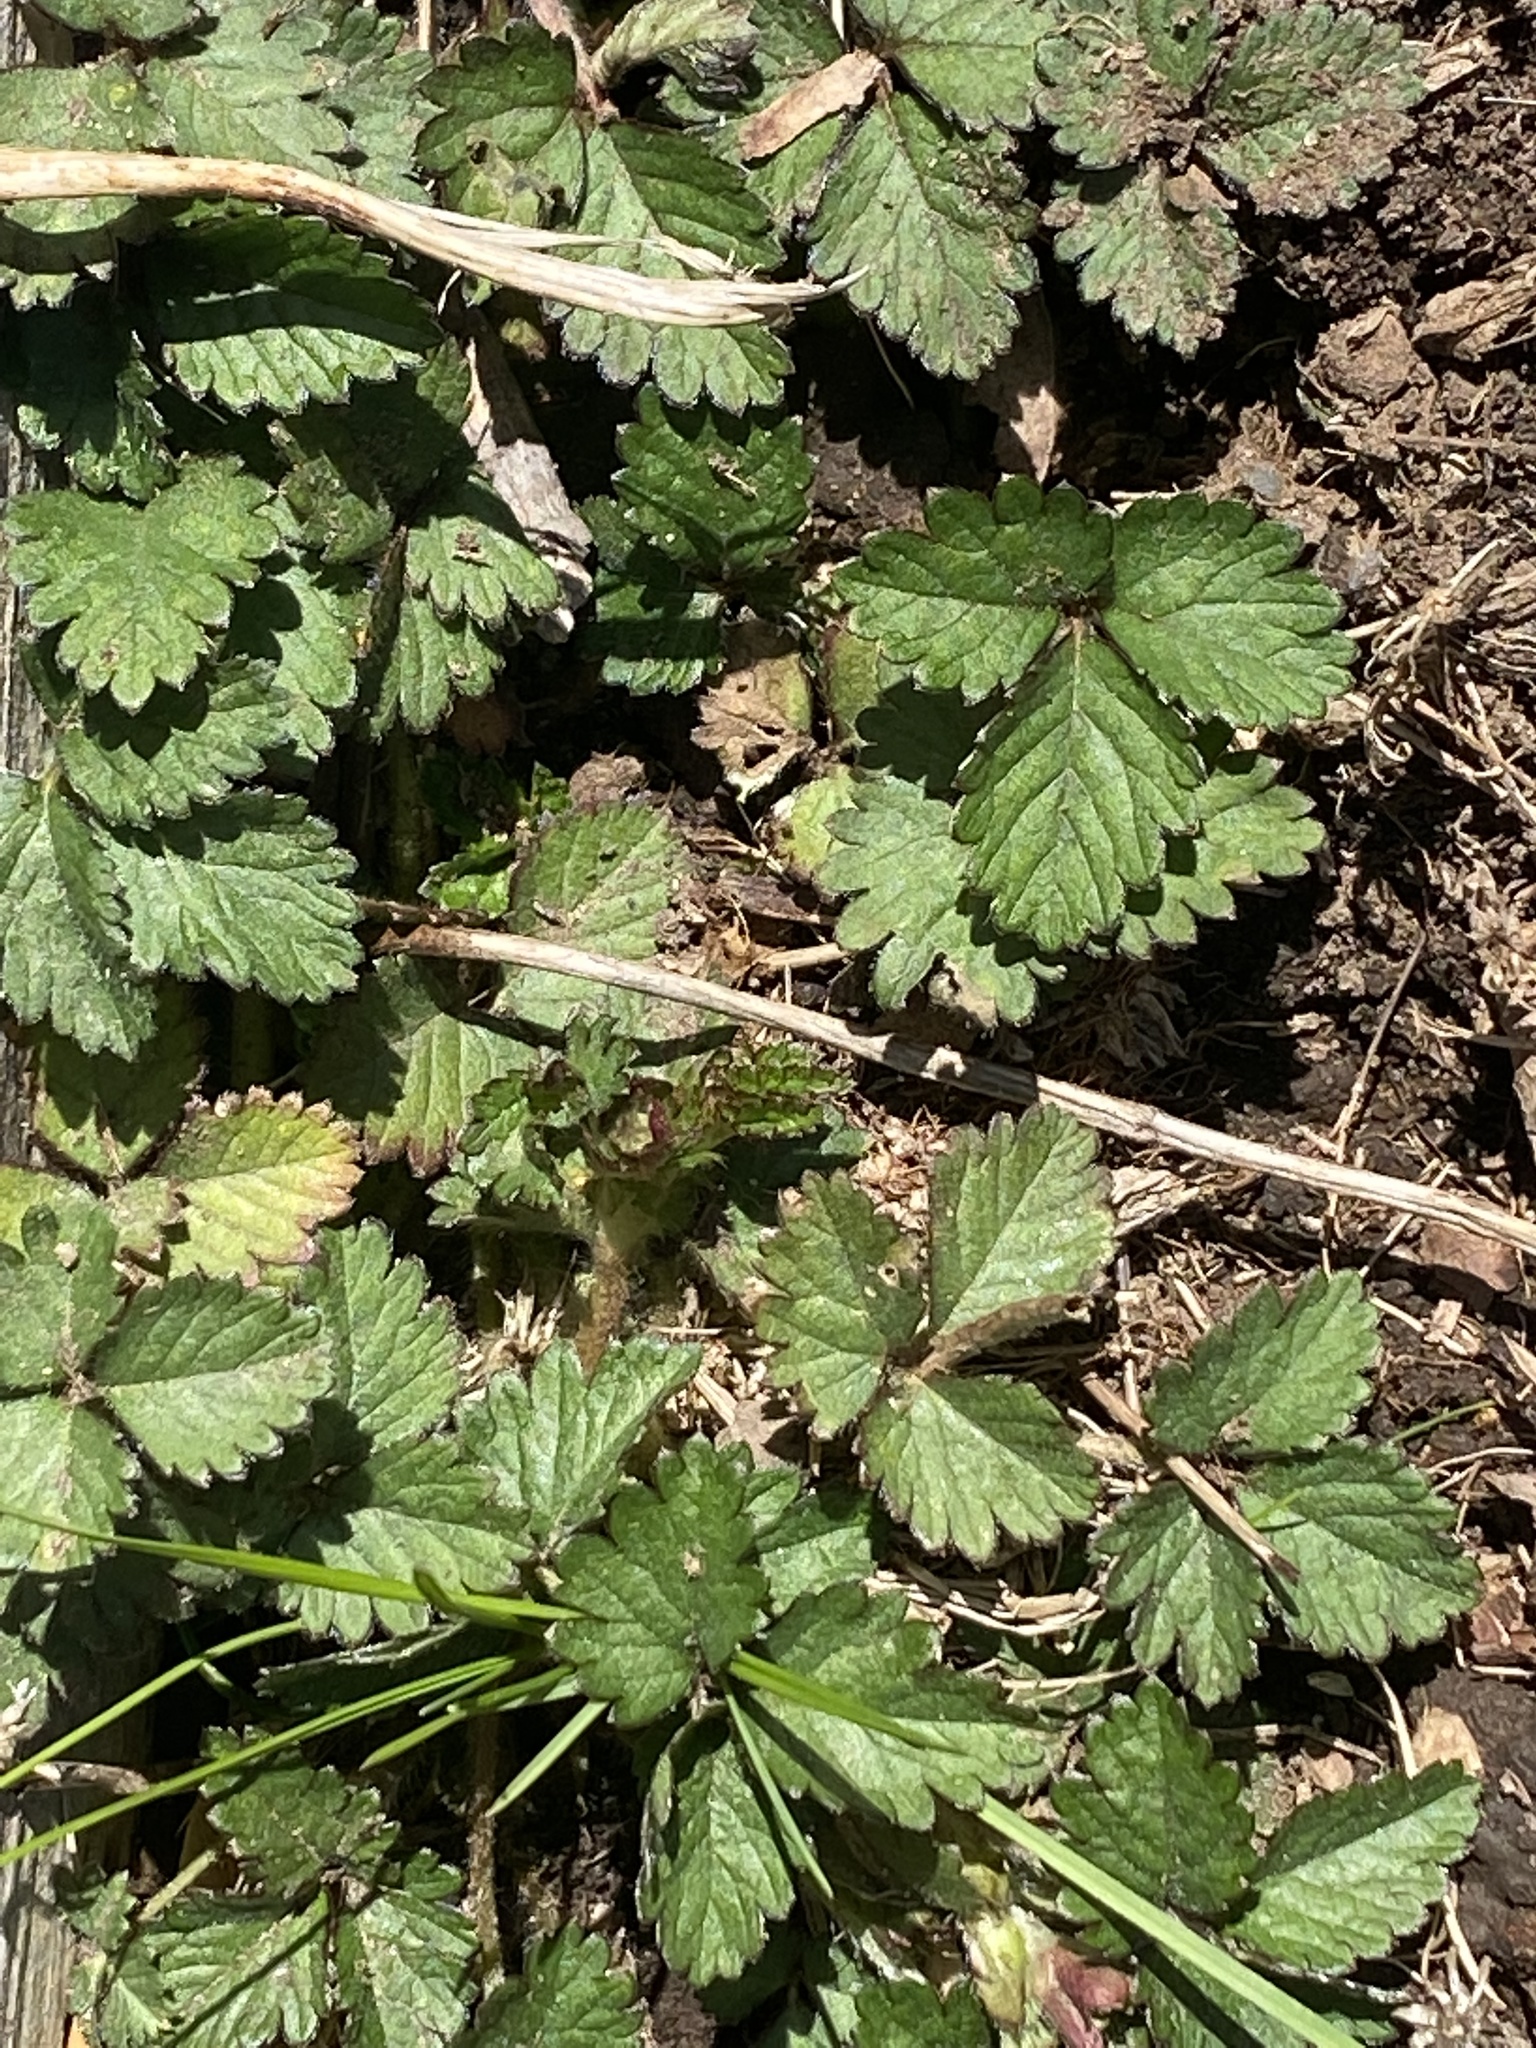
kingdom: Plantae
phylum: Tracheophyta
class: Magnoliopsida
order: Rosales
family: Rosaceae
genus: Potentilla
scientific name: Potentilla indica
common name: Yellow-flowered strawberry
